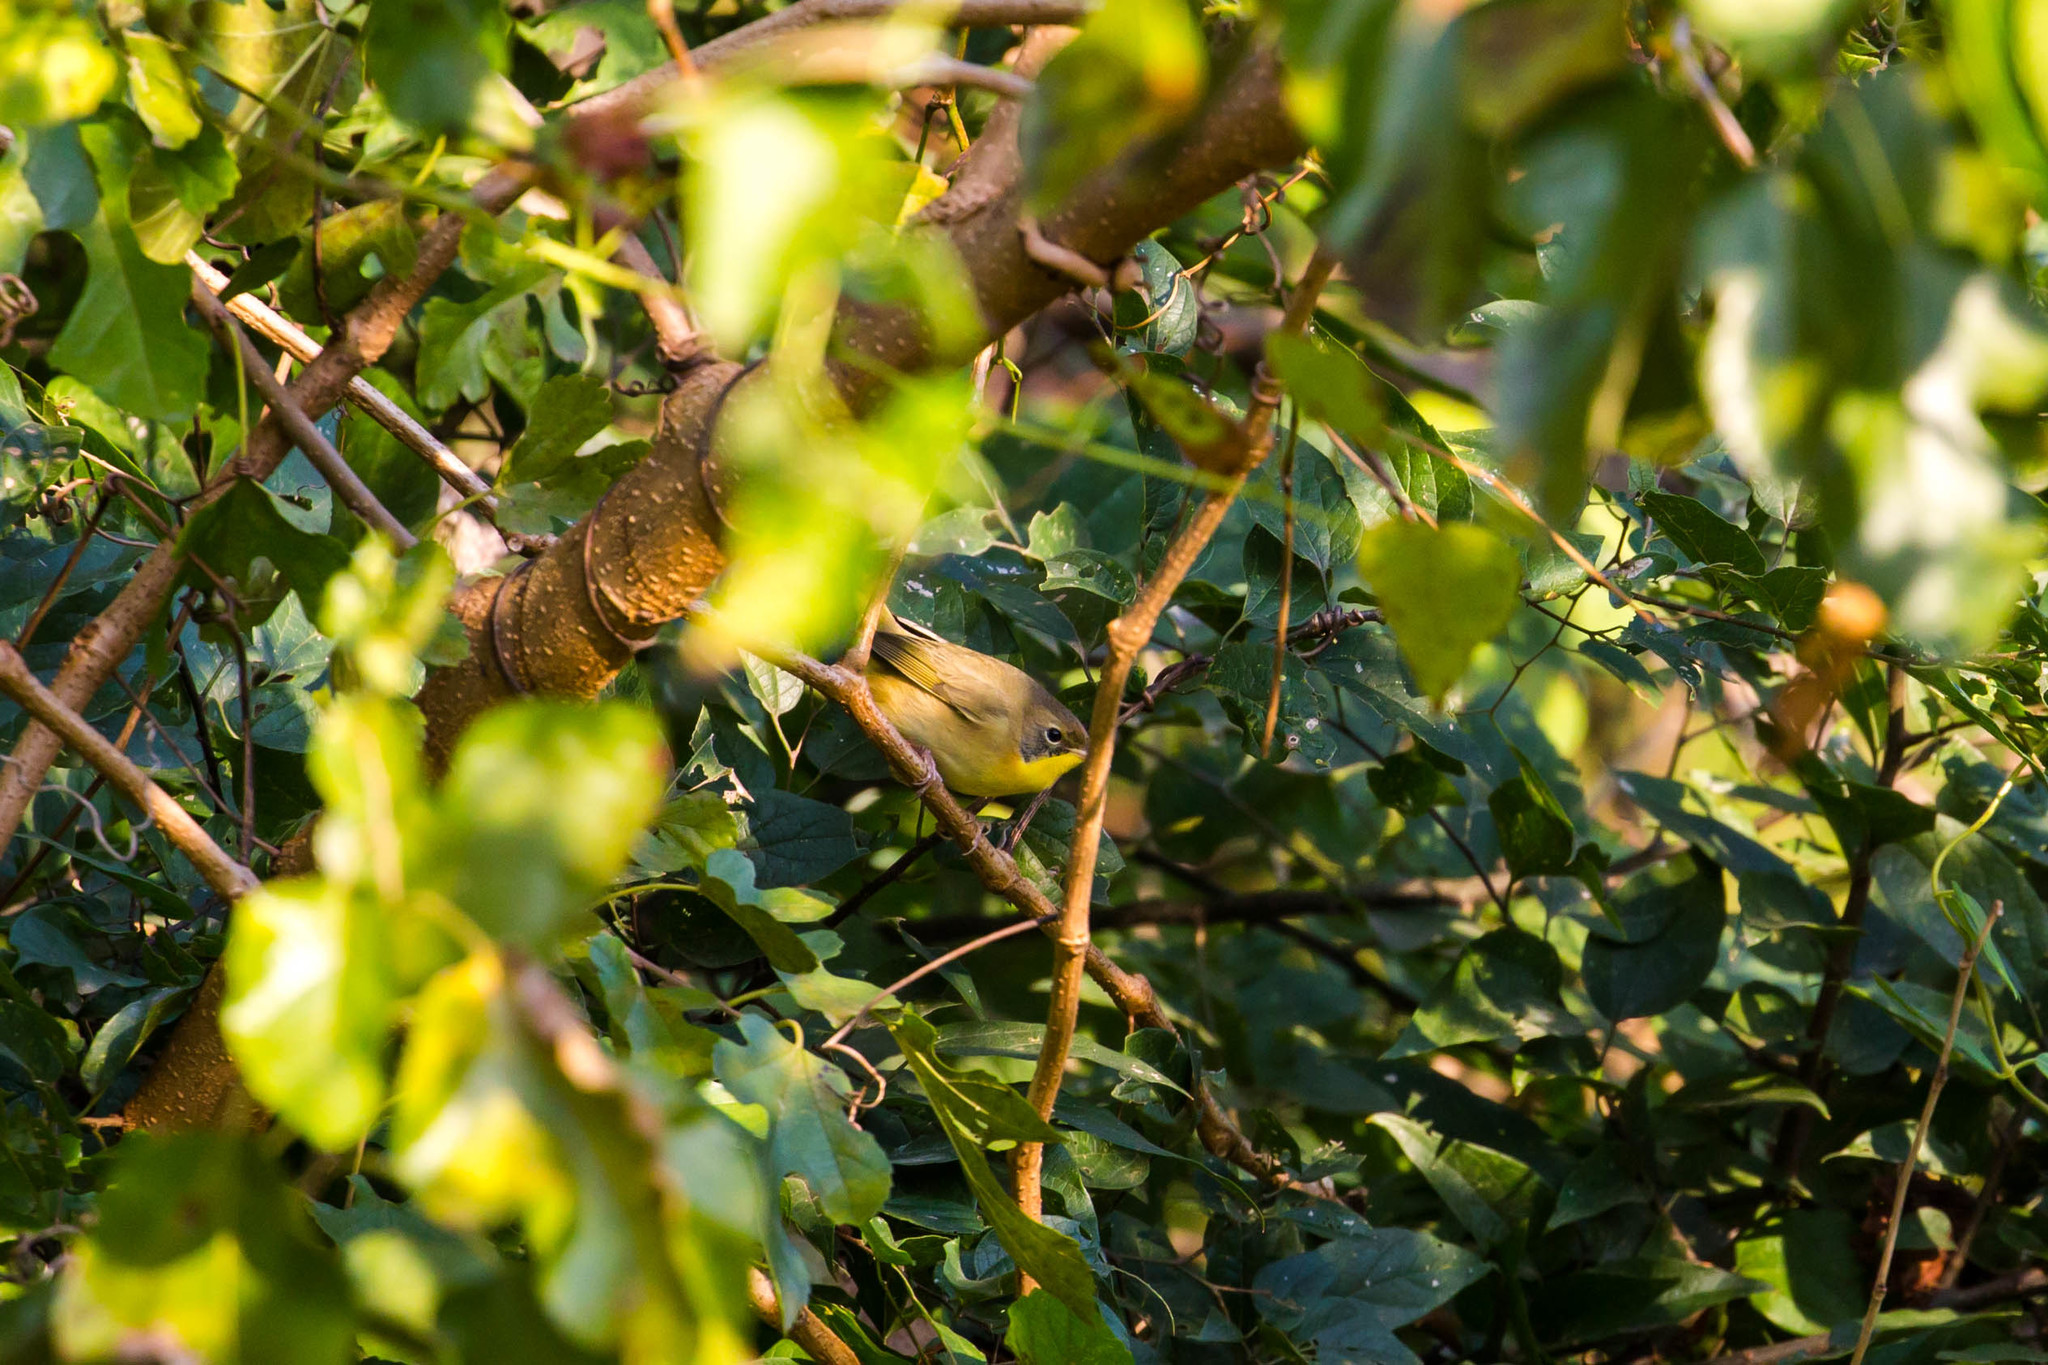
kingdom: Animalia
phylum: Chordata
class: Aves
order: Passeriformes
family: Parulidae
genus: Geothlypis
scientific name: Geothlypis trichas
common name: Common yellowthroat
